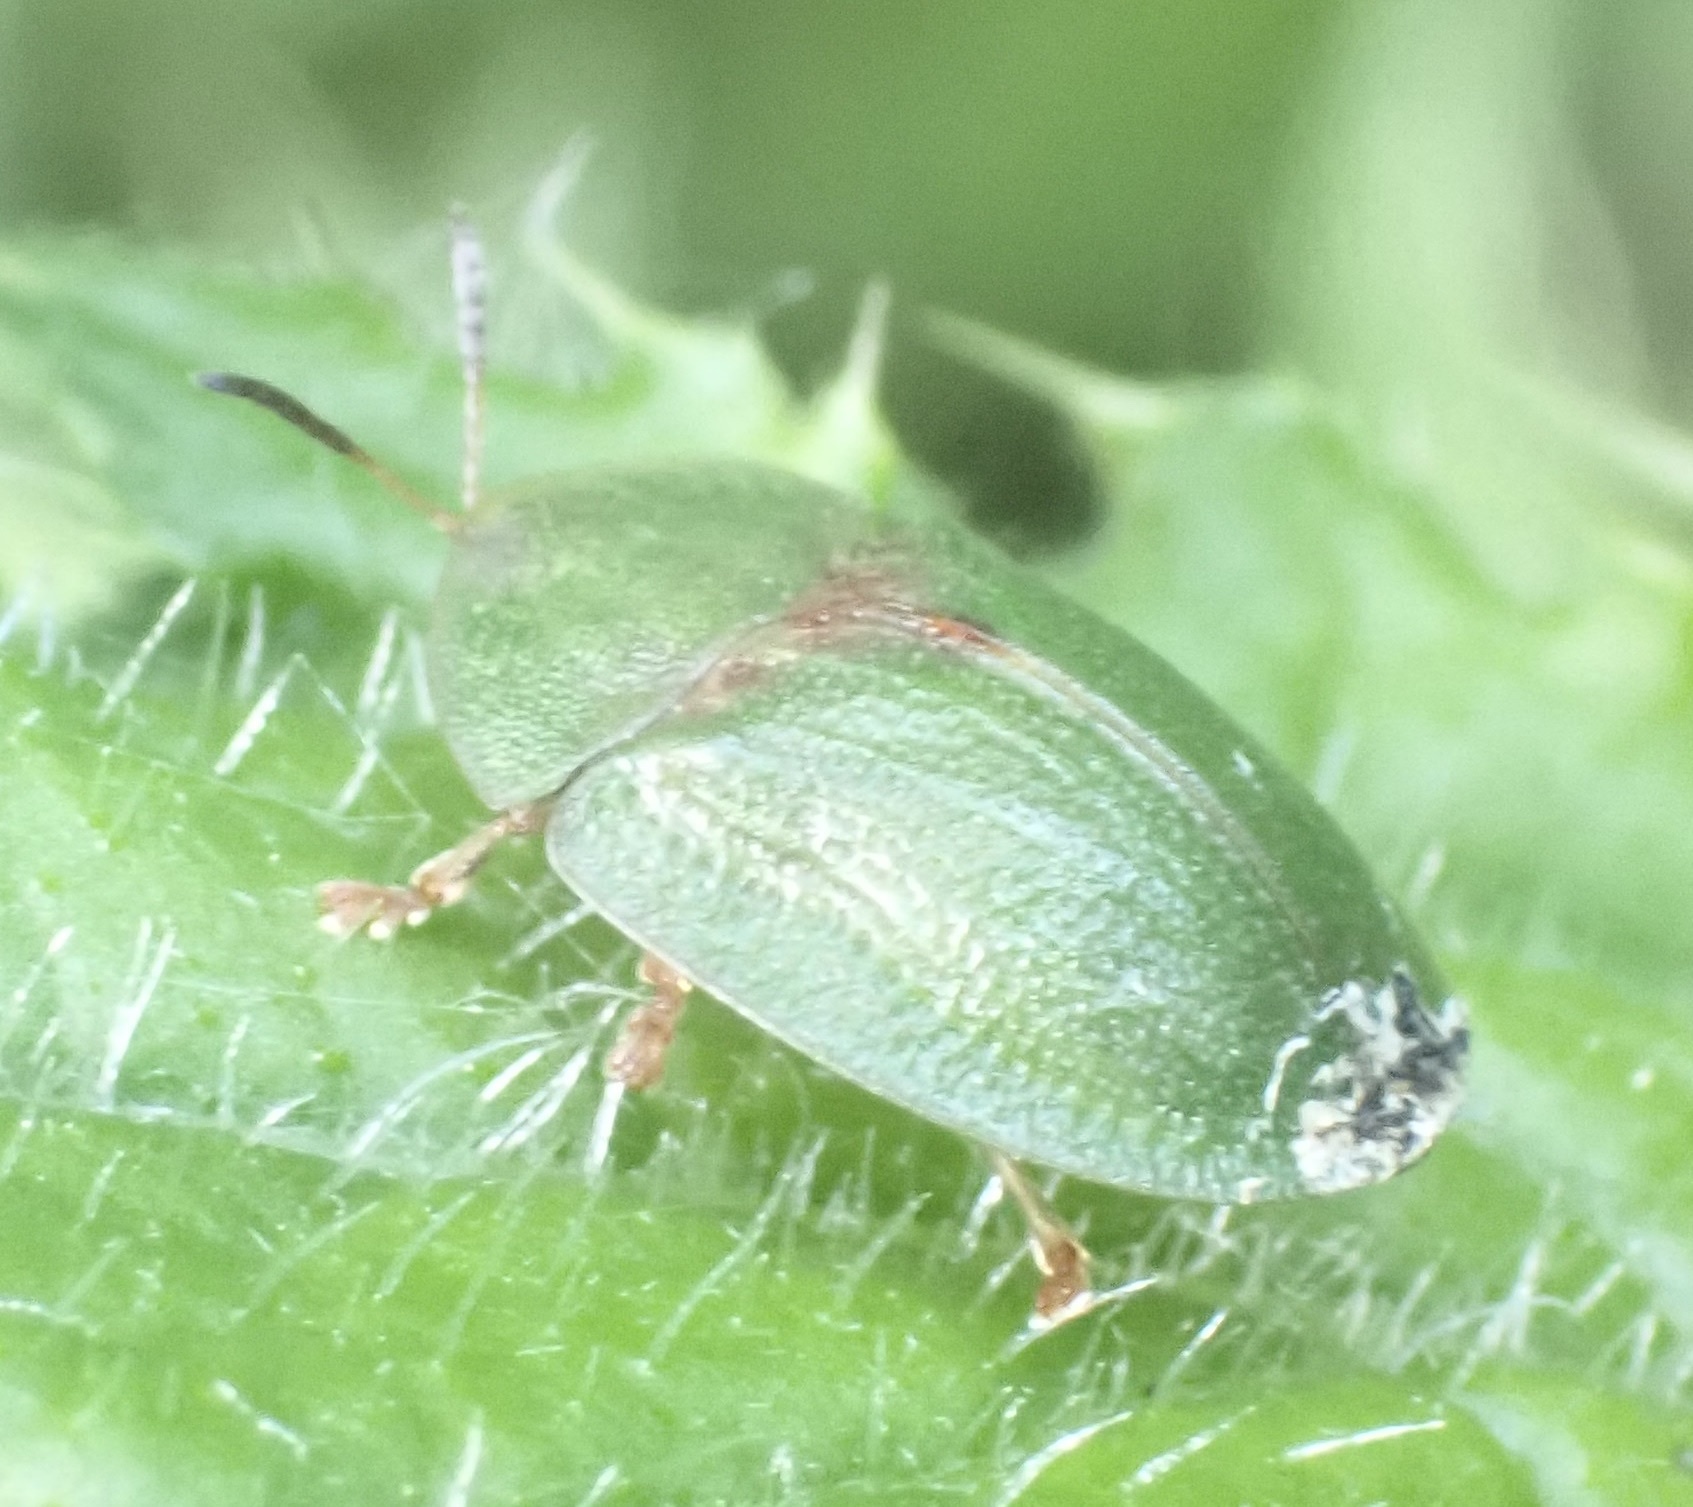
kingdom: Animalia
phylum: Arthropoda
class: Insecta
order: Coleoptera
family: Chrysomelidae
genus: Cassida
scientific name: Cassida rubiginosa
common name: Thistle tortoise beetle
